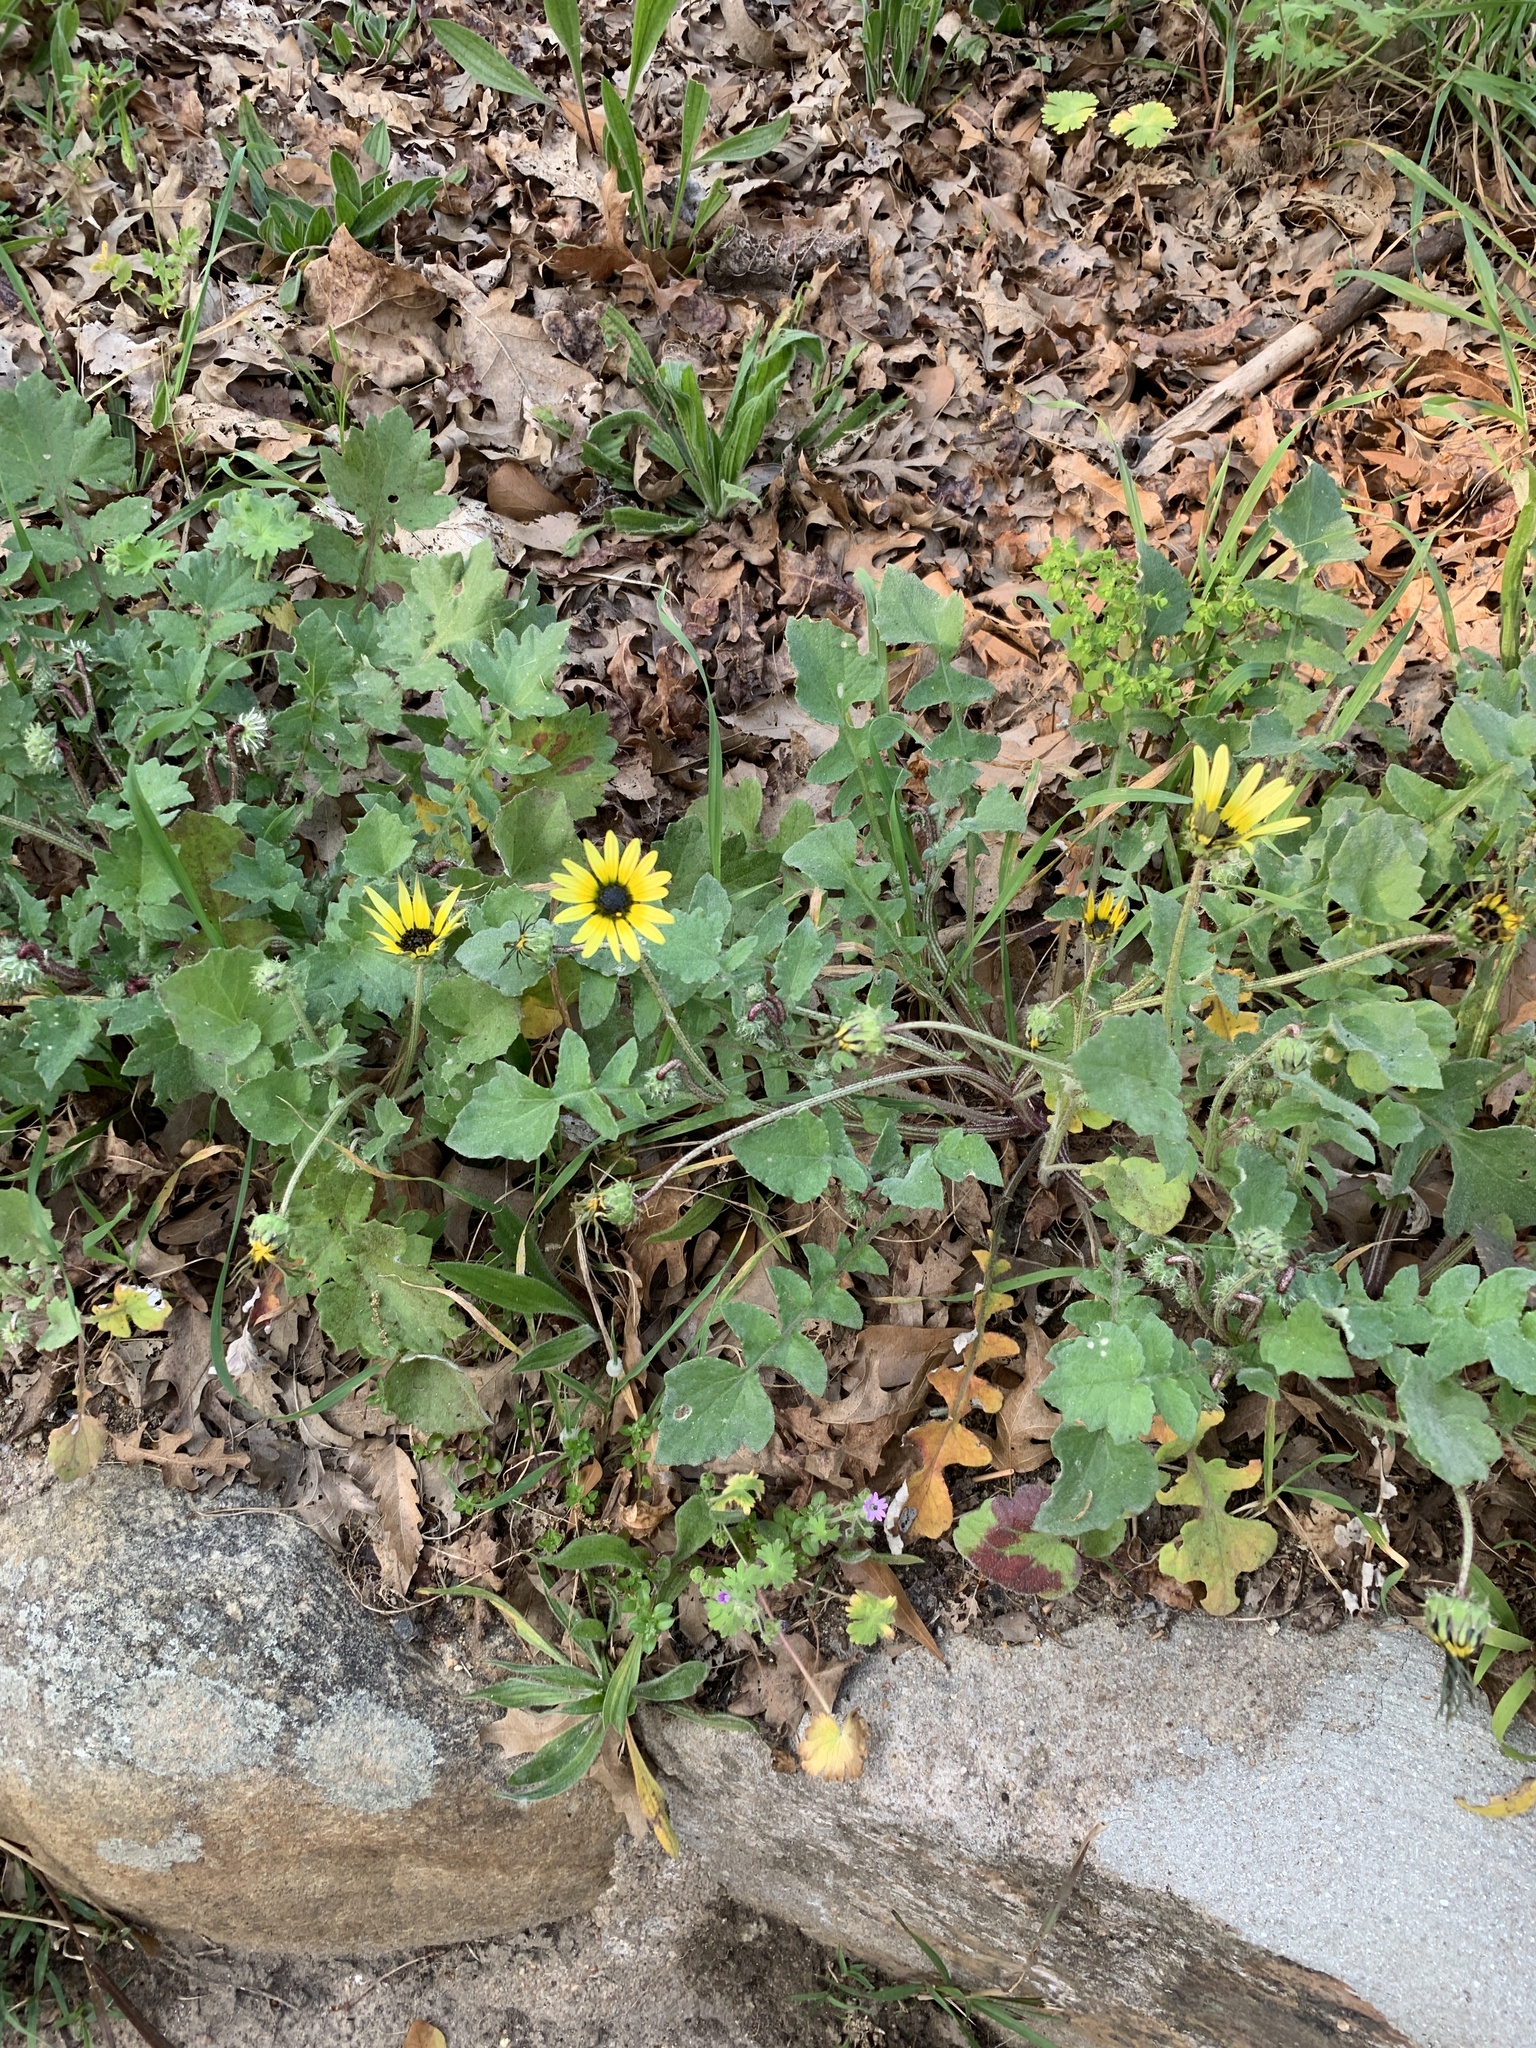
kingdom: Plantae
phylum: Tracheophyta
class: Magnoliopsida
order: Asterales
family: Asteraceae
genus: Arctotheca
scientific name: Arctotheca calendula
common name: Capeweed
